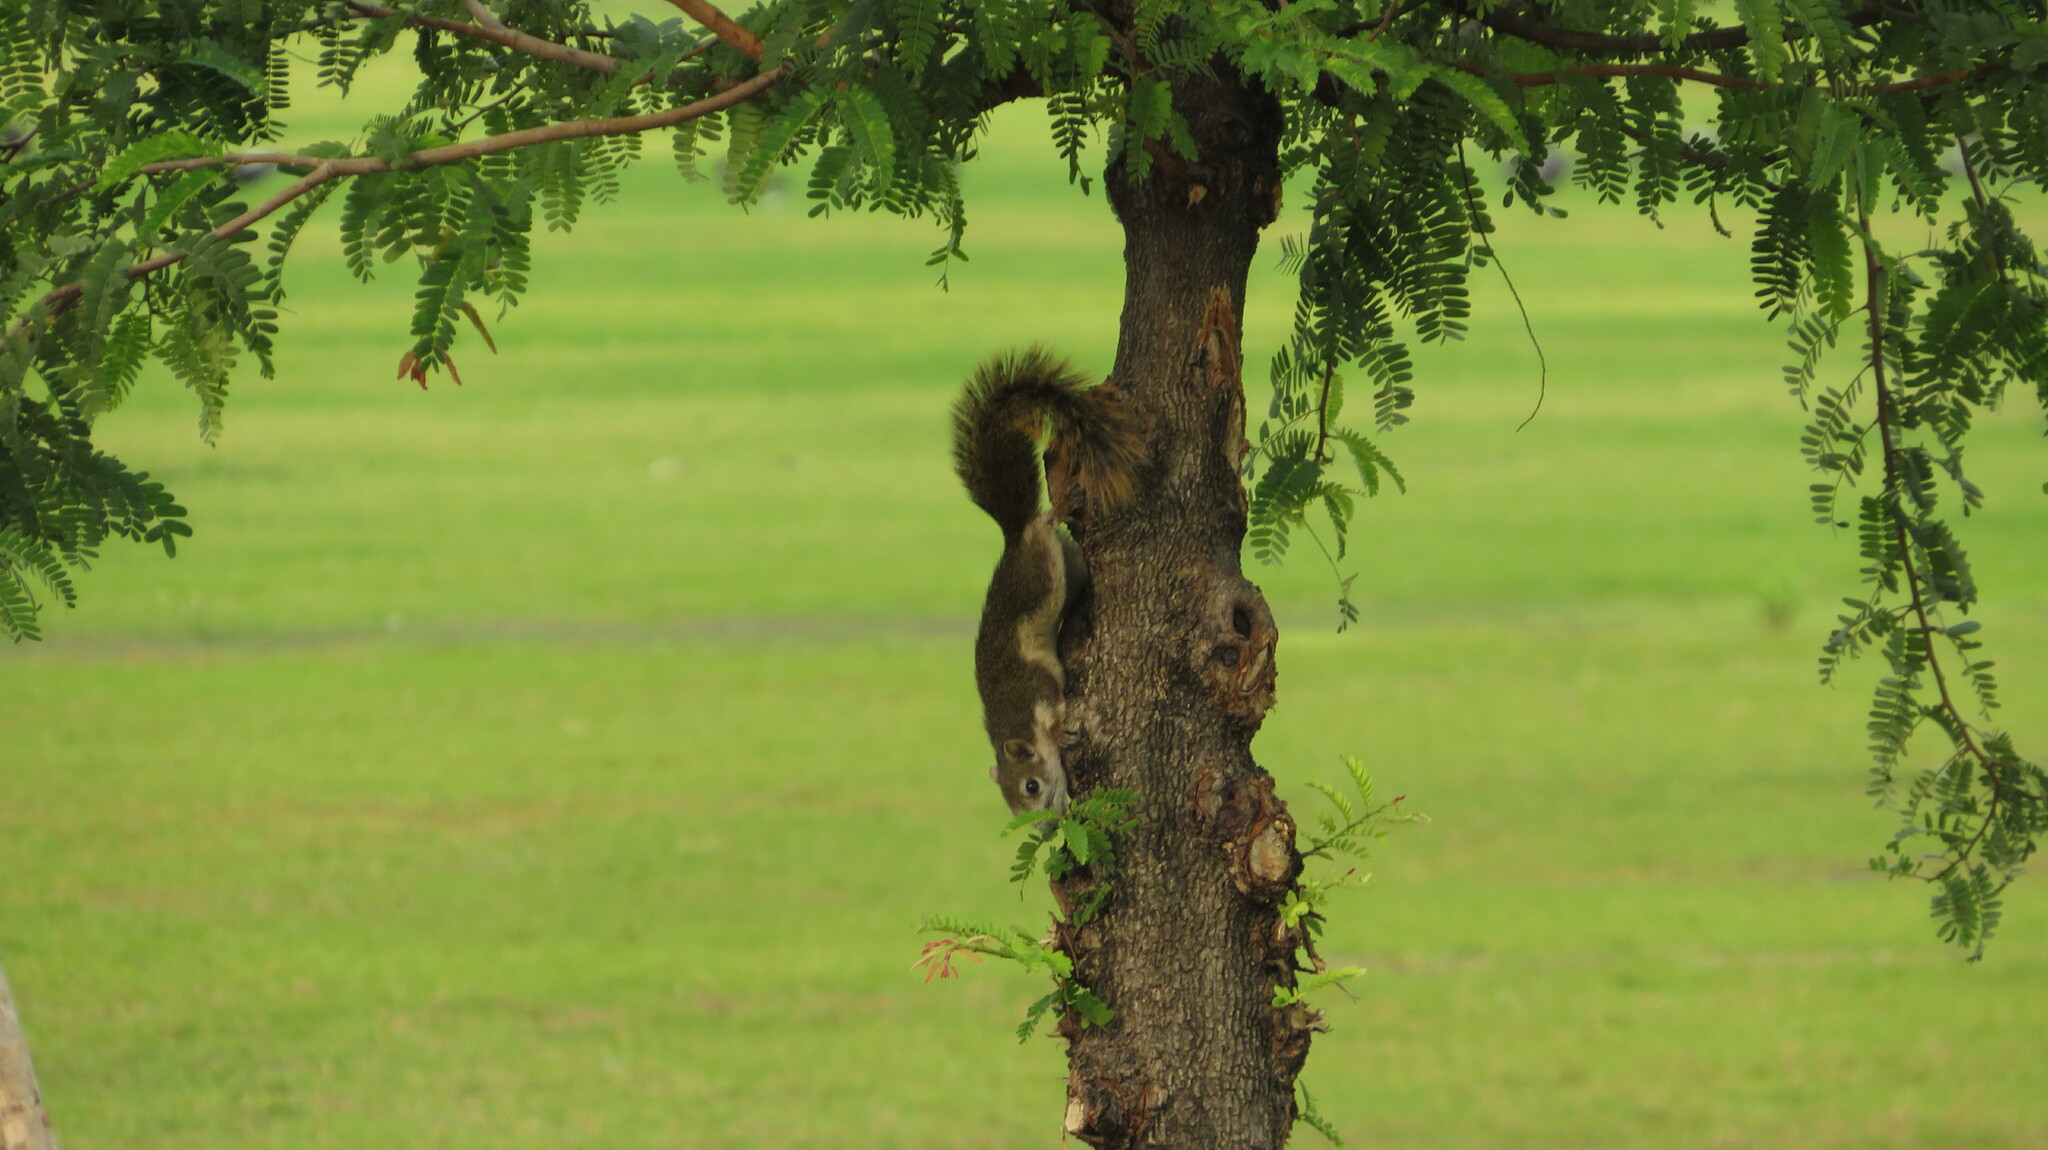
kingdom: Animalia
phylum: Chordata
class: Mammalia
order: Rodentia
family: Sciuridae
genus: Callosciurus
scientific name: Callosciurus finlaysonii
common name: Finlayson's squirrel
